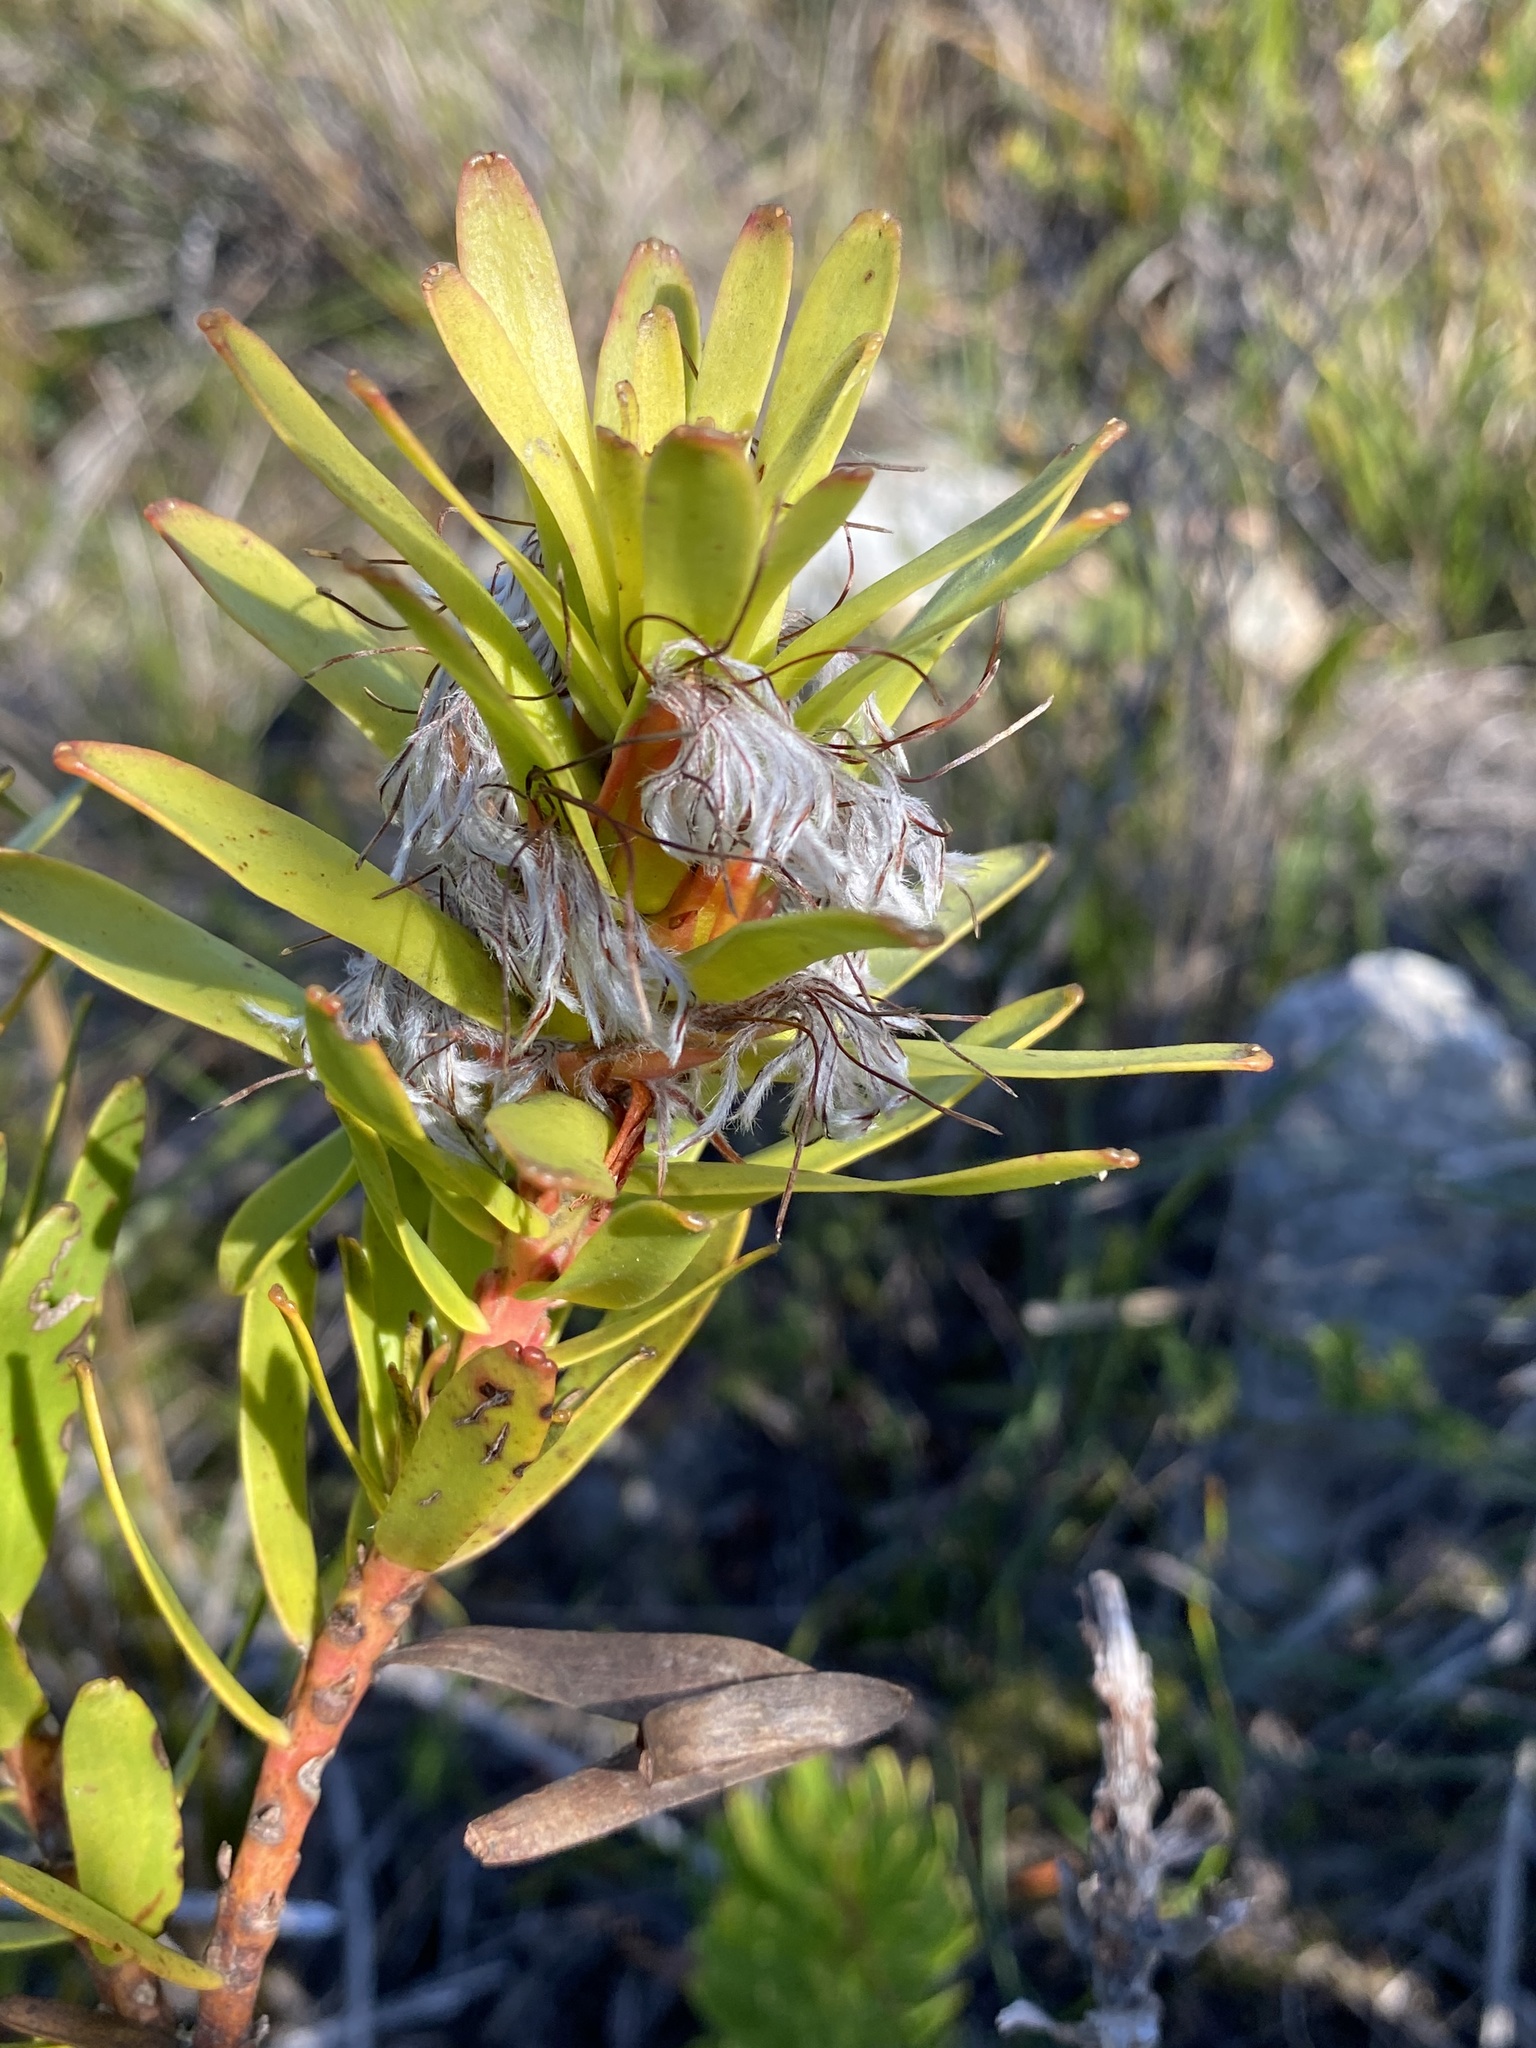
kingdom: Plantae
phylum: Tracheophyta
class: Magnoliopsida
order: Proteales
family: Proteaceae
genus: Mimetes
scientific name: Mimetes cucullatus
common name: Common pagoda
